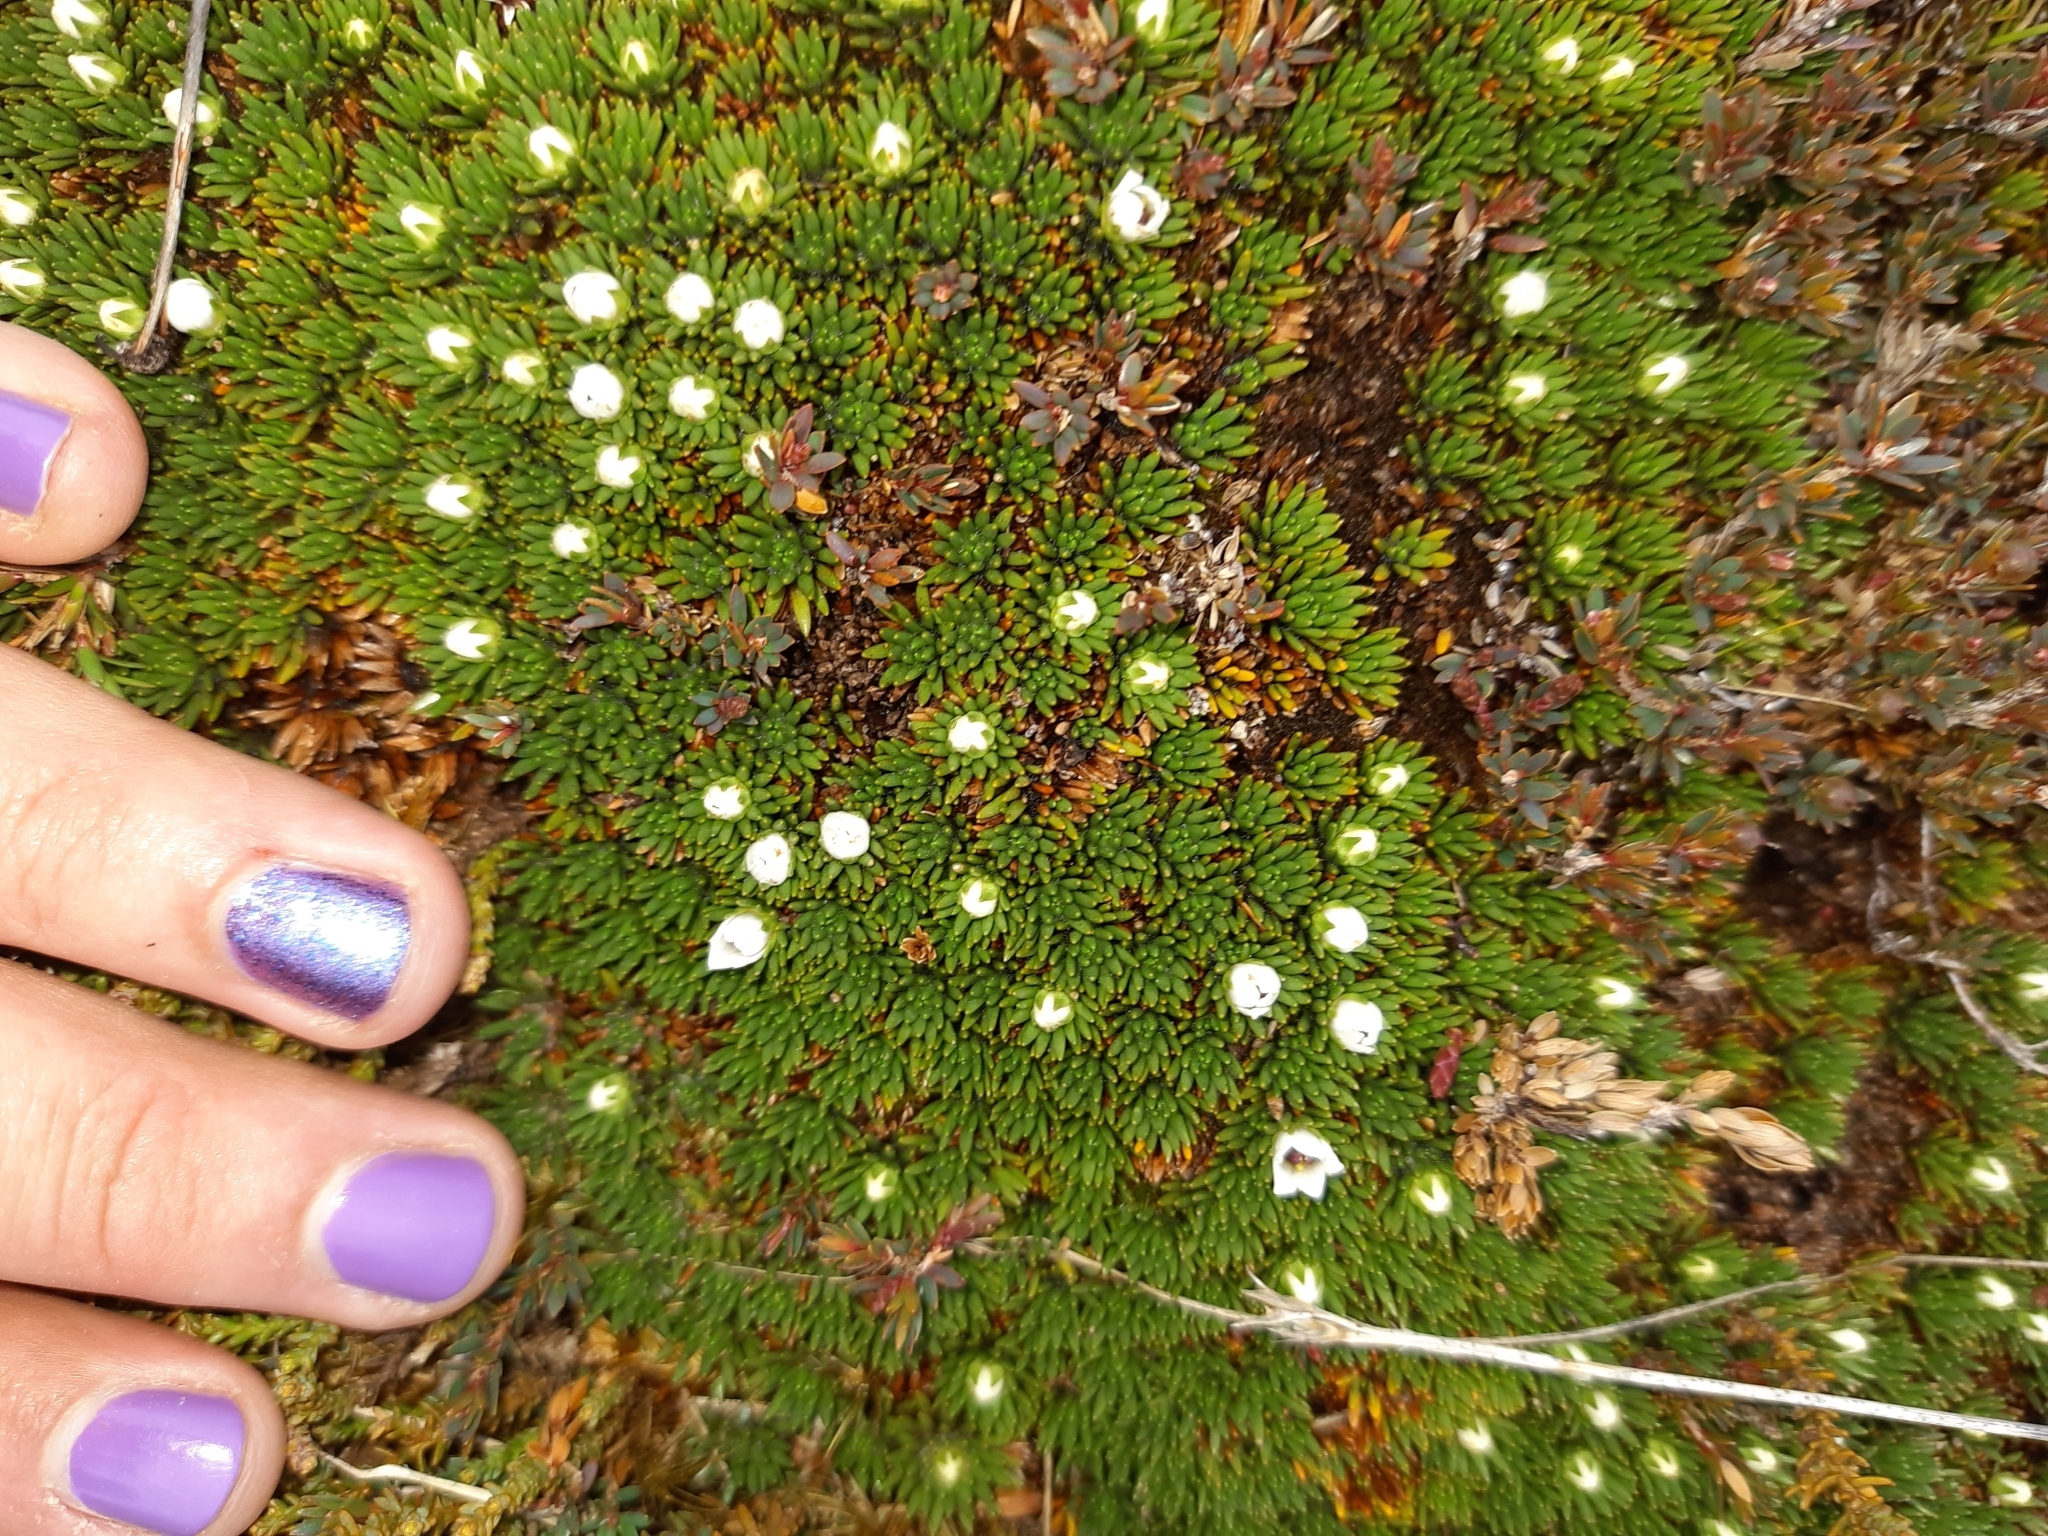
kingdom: Plantae
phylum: Tracheophyta
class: Magnoliopsida
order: Asterales
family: Stylidiaceae
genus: Donatia
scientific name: Donatia novae-zelandiae
